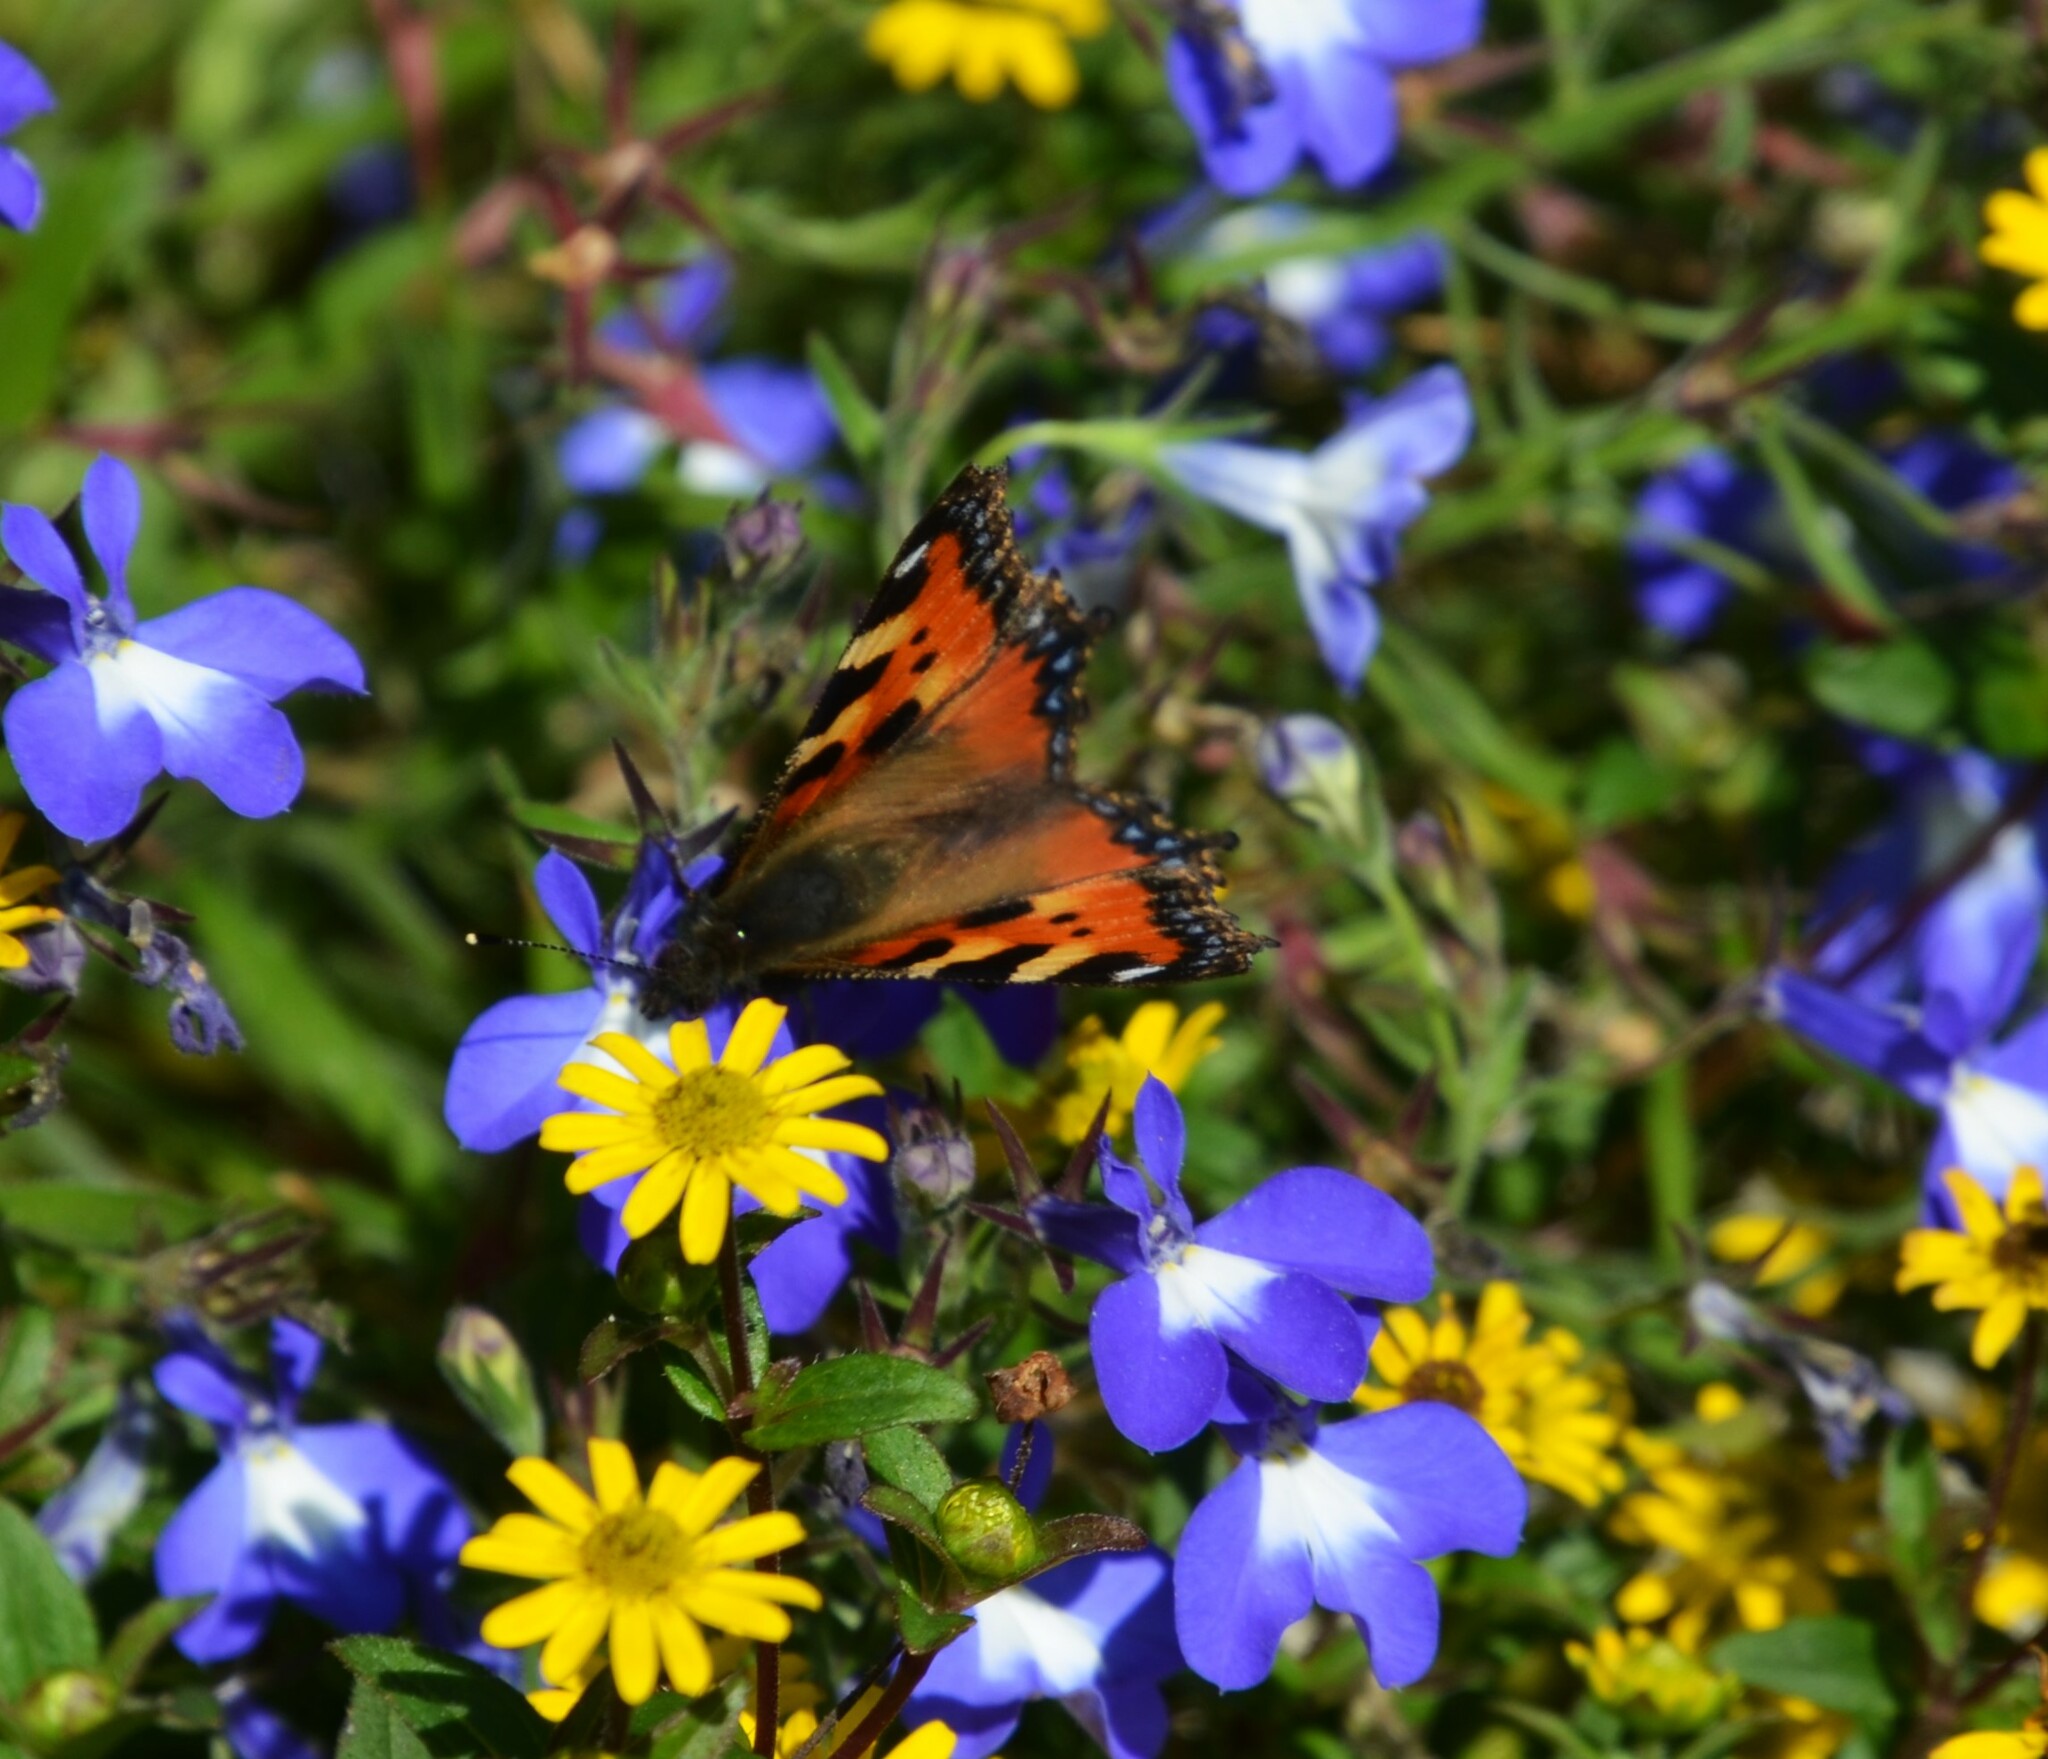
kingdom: Animalia
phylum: Arthropoda
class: Insecta
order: Lepidoptera
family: Nymphalidae
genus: Aglais
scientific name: Aglais urticae
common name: Small tortoiseshell
